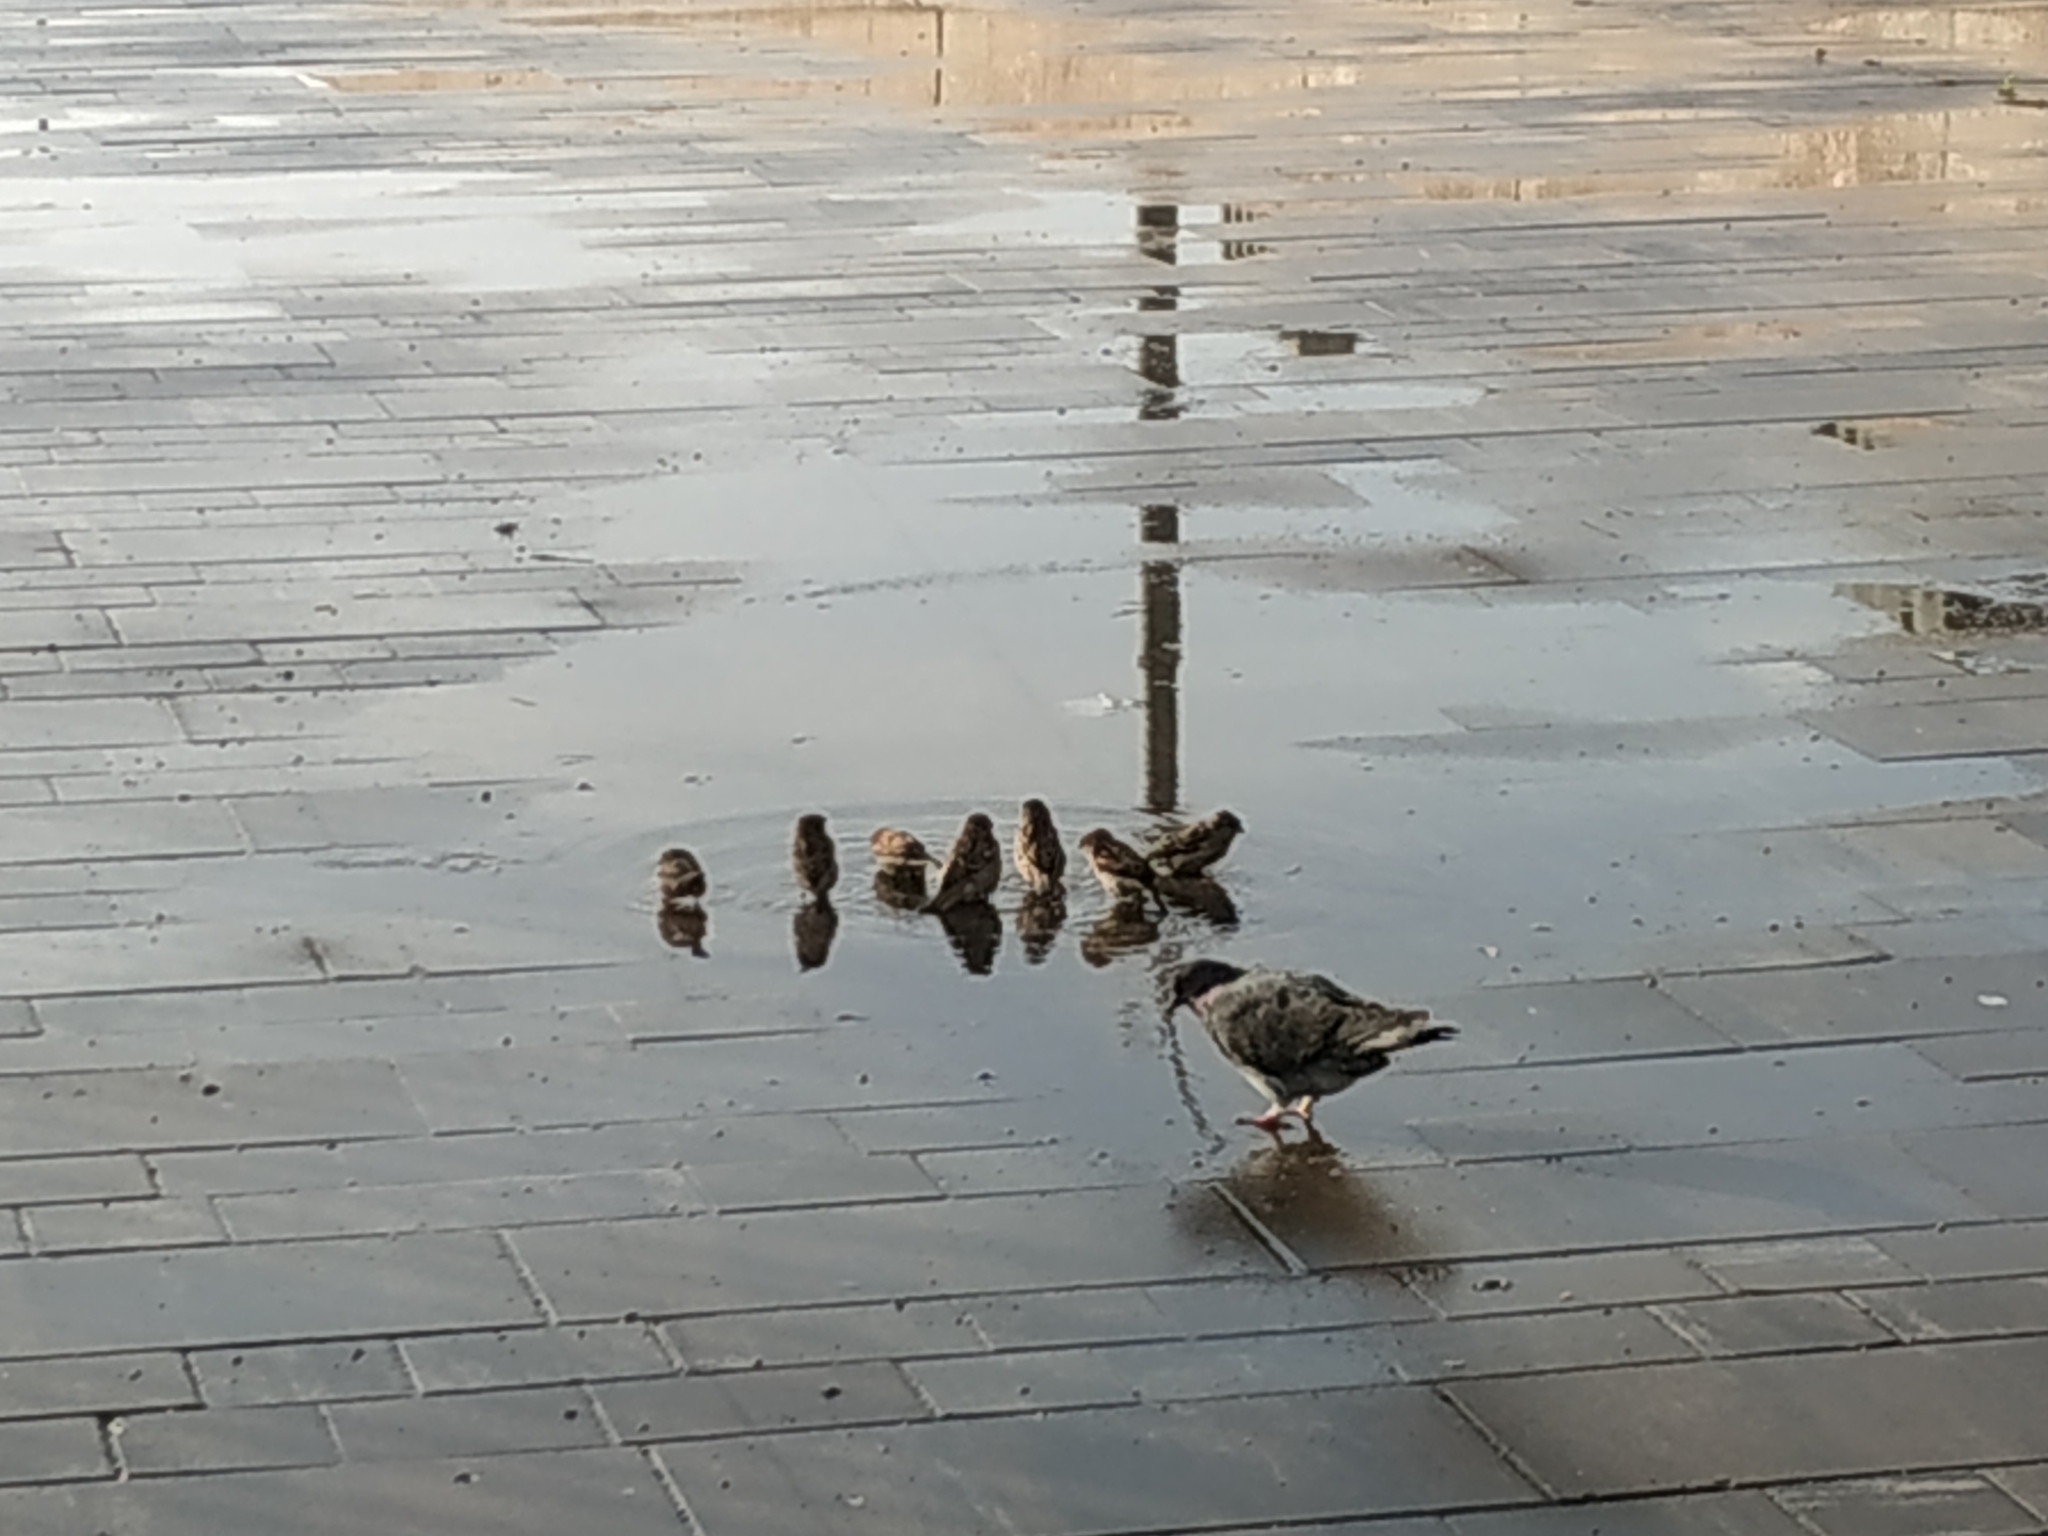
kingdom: Animalia
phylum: Chordata
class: Aves
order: Passeriformes
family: Passeridae
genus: Passer
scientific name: Passer domesticus
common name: House sparrow
